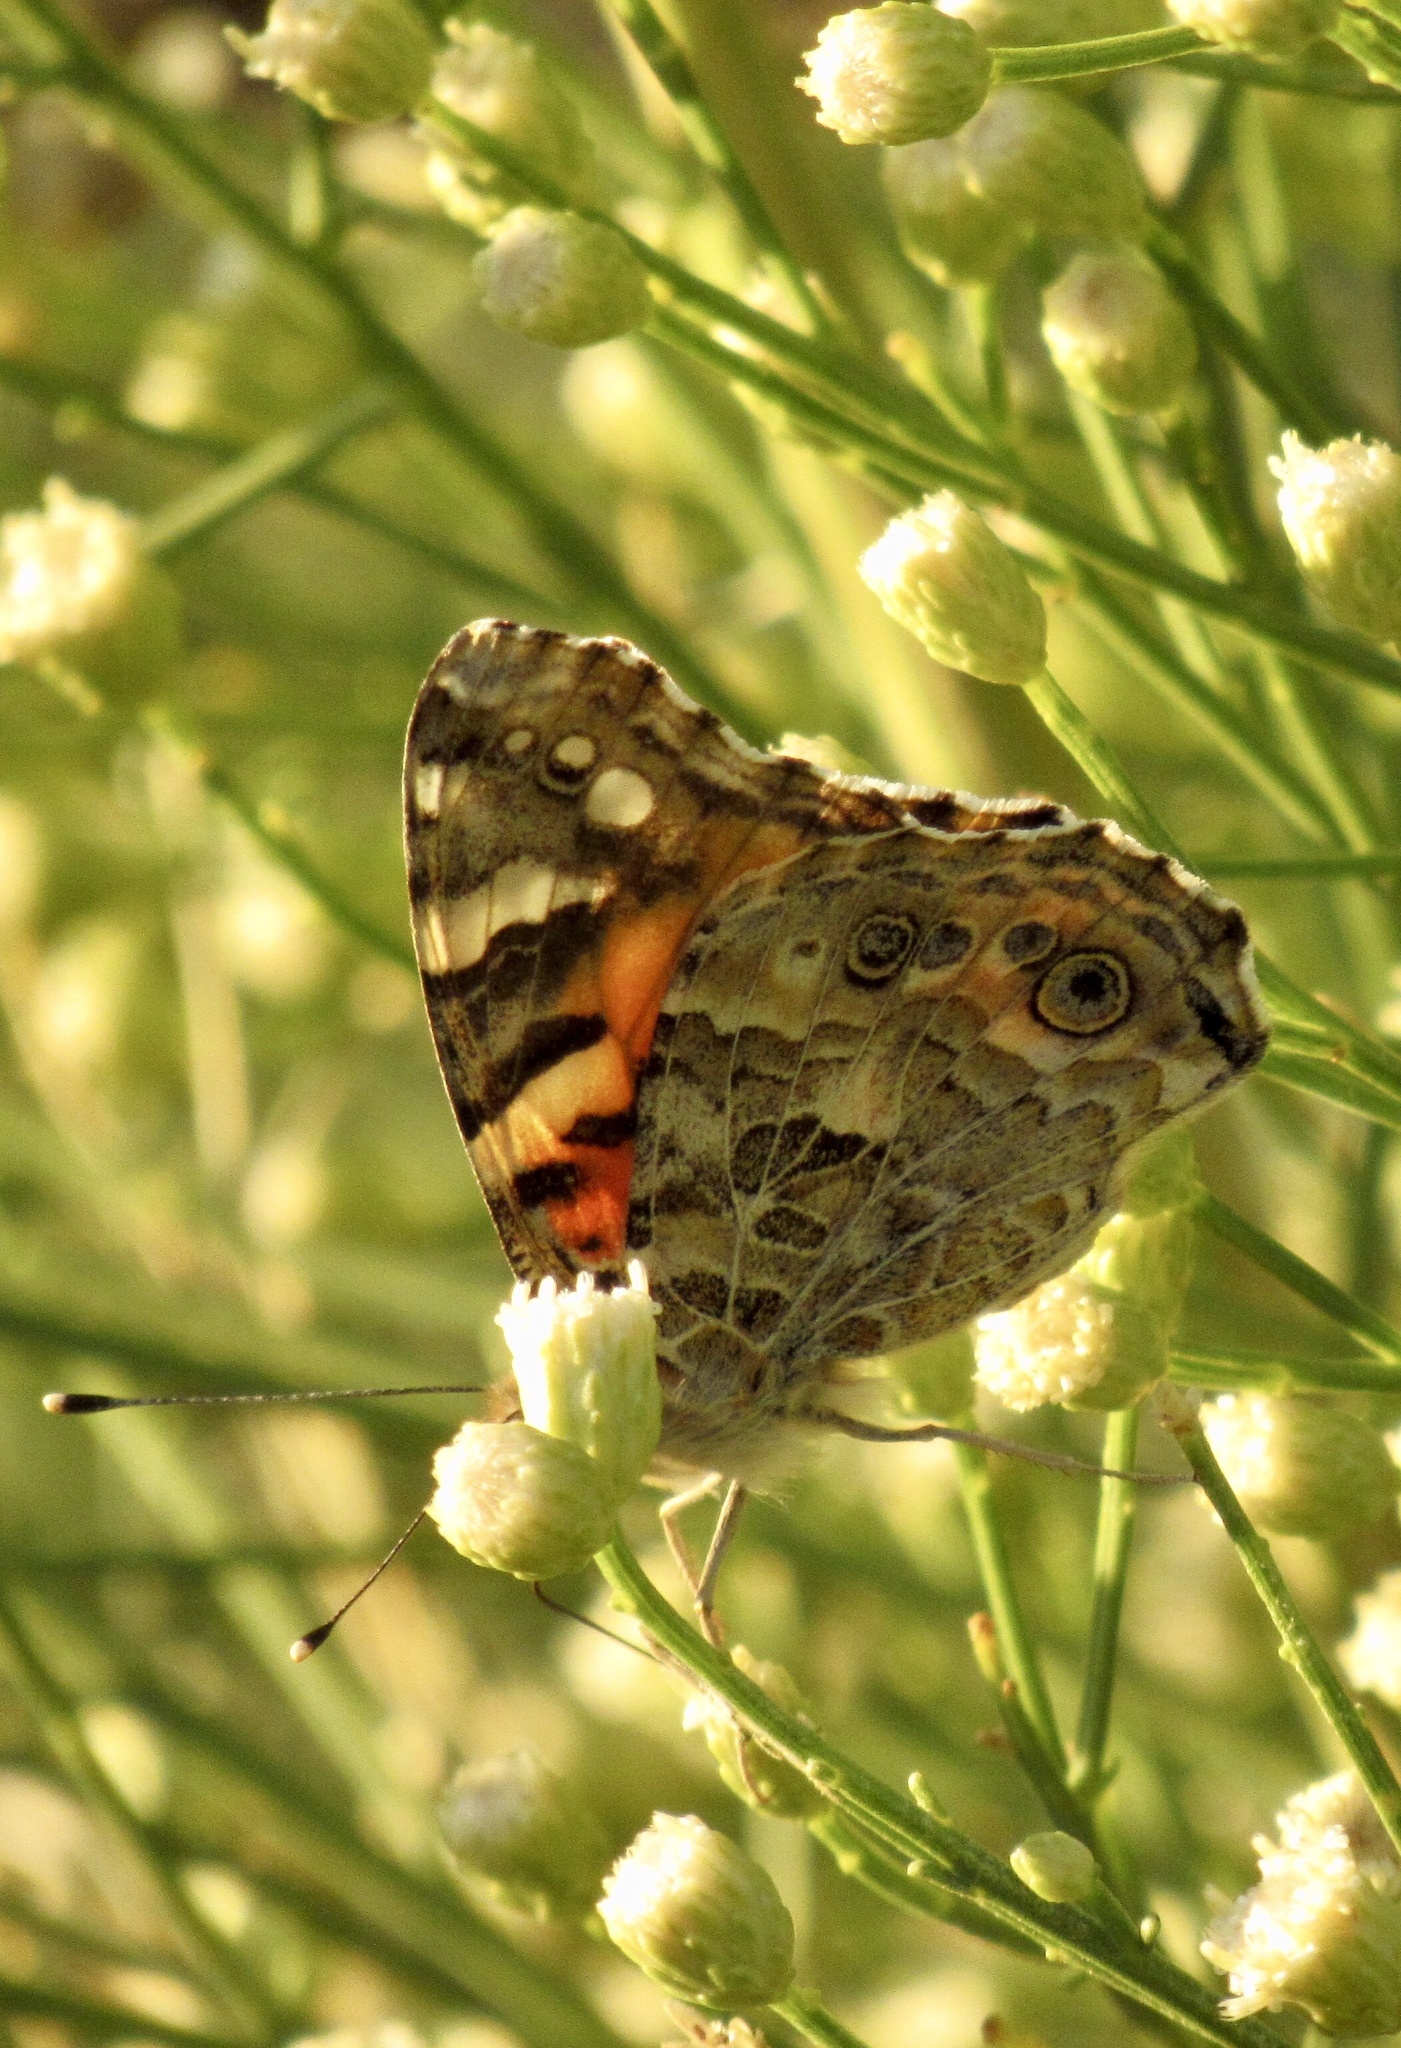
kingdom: Animalia
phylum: Arthropoda
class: Insecta
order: Lepidoptera
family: Nymphalidae
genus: Vanessa
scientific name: Vanessa cardui
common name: Painted lady
